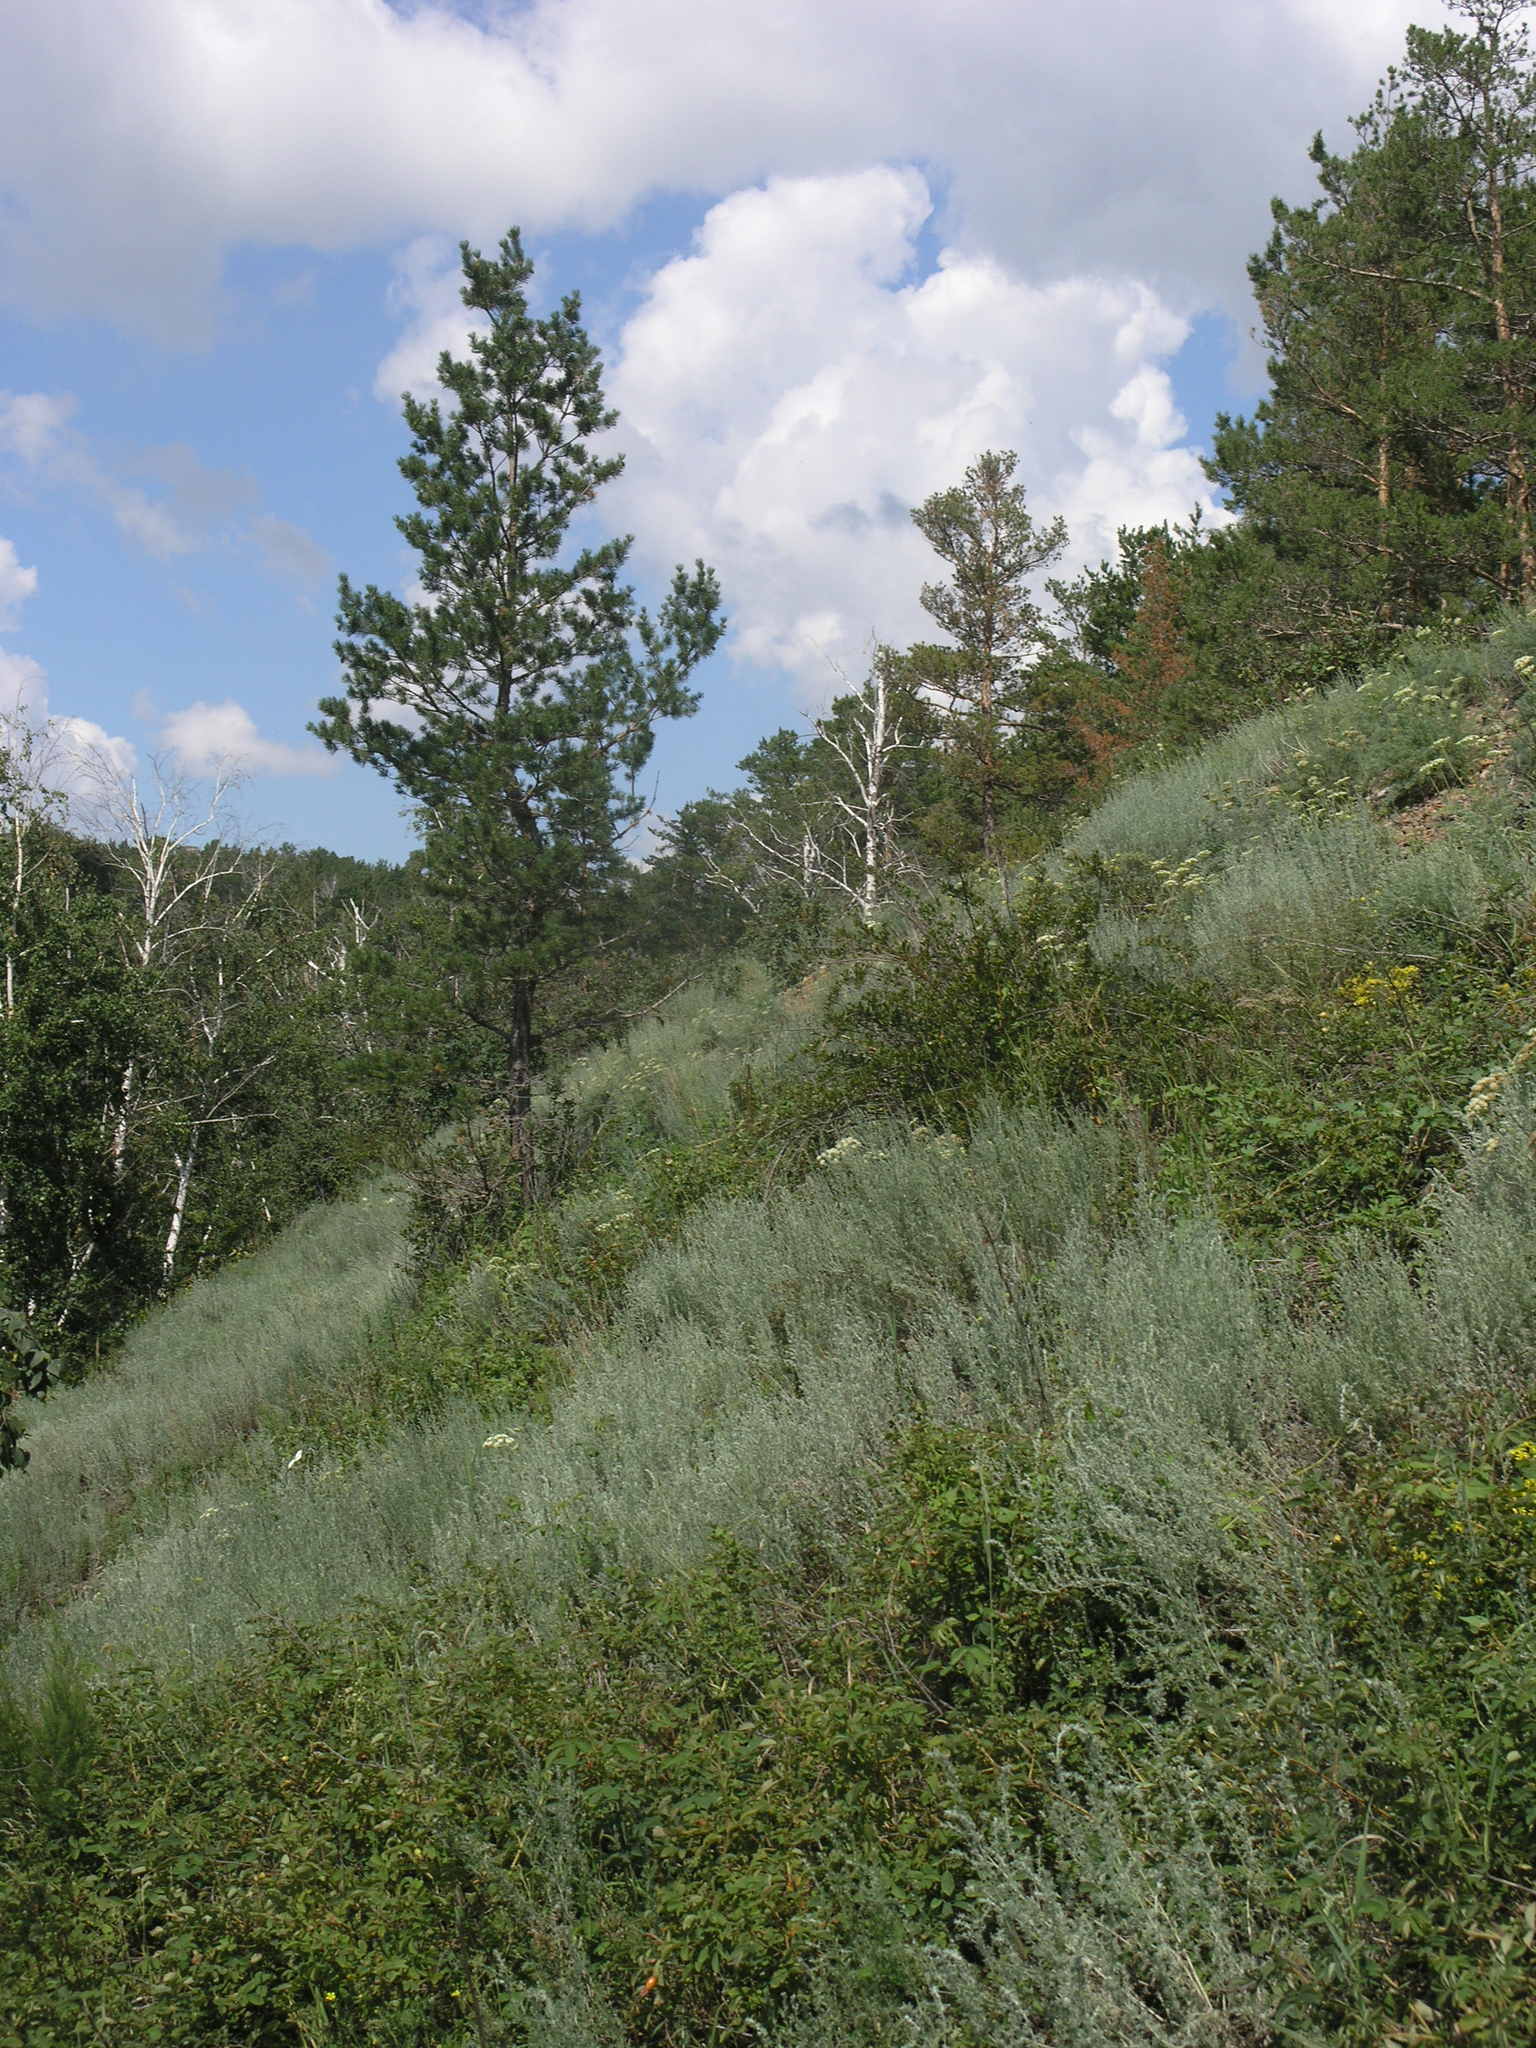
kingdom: Plantae
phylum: Tracheophyta
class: Pinopsida
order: Pinales
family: Pinaceae
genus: Pinus
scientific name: Pinus sylvestris
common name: Scots pine
